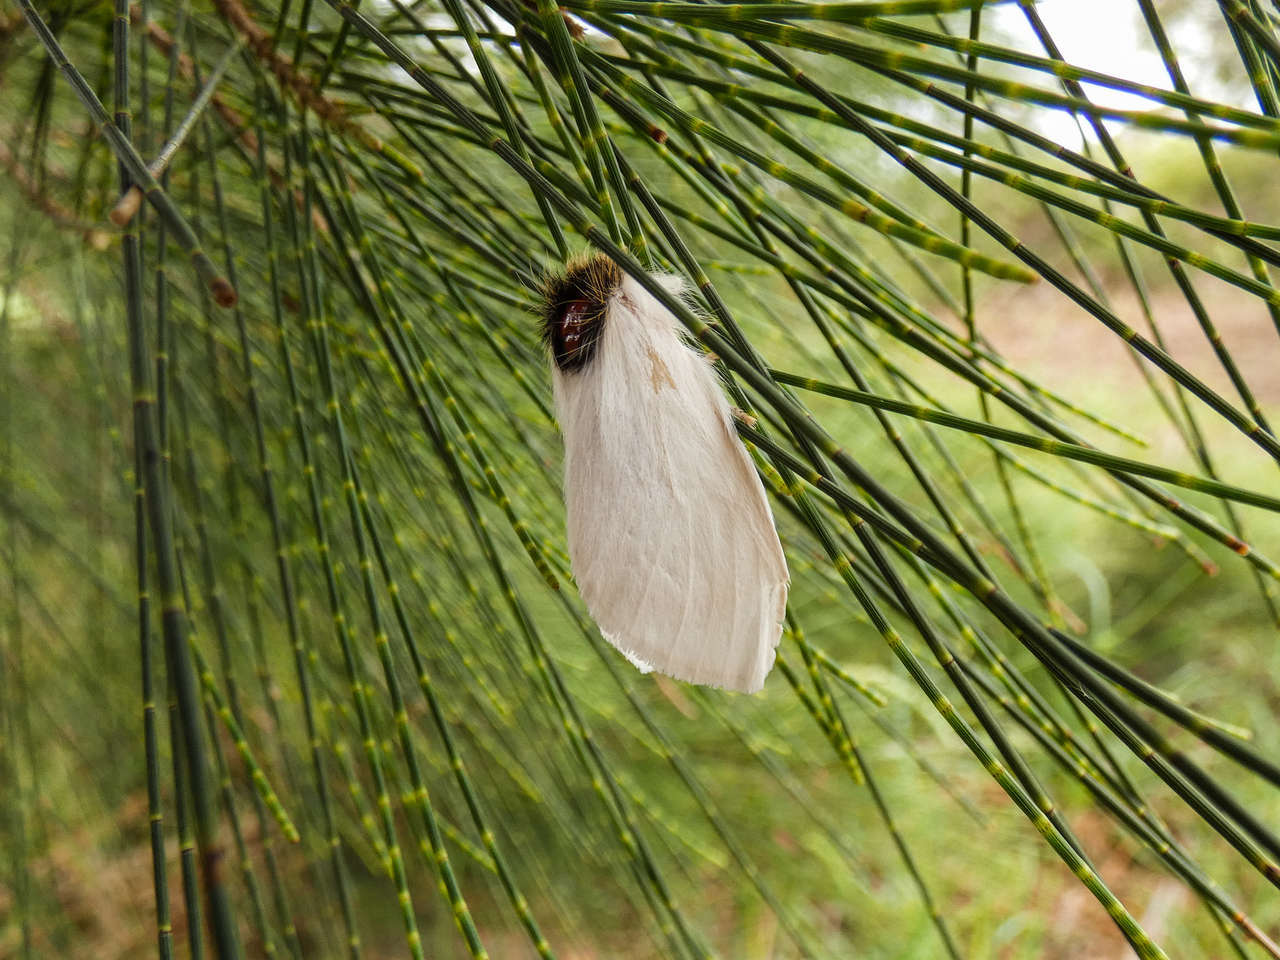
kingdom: Animalia
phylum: Arthropoda
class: Insecta
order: Lepidoptera
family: Notodontidae
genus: Trichiocercus
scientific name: Trichiocercus sparshalli
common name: Long-tailed satin
